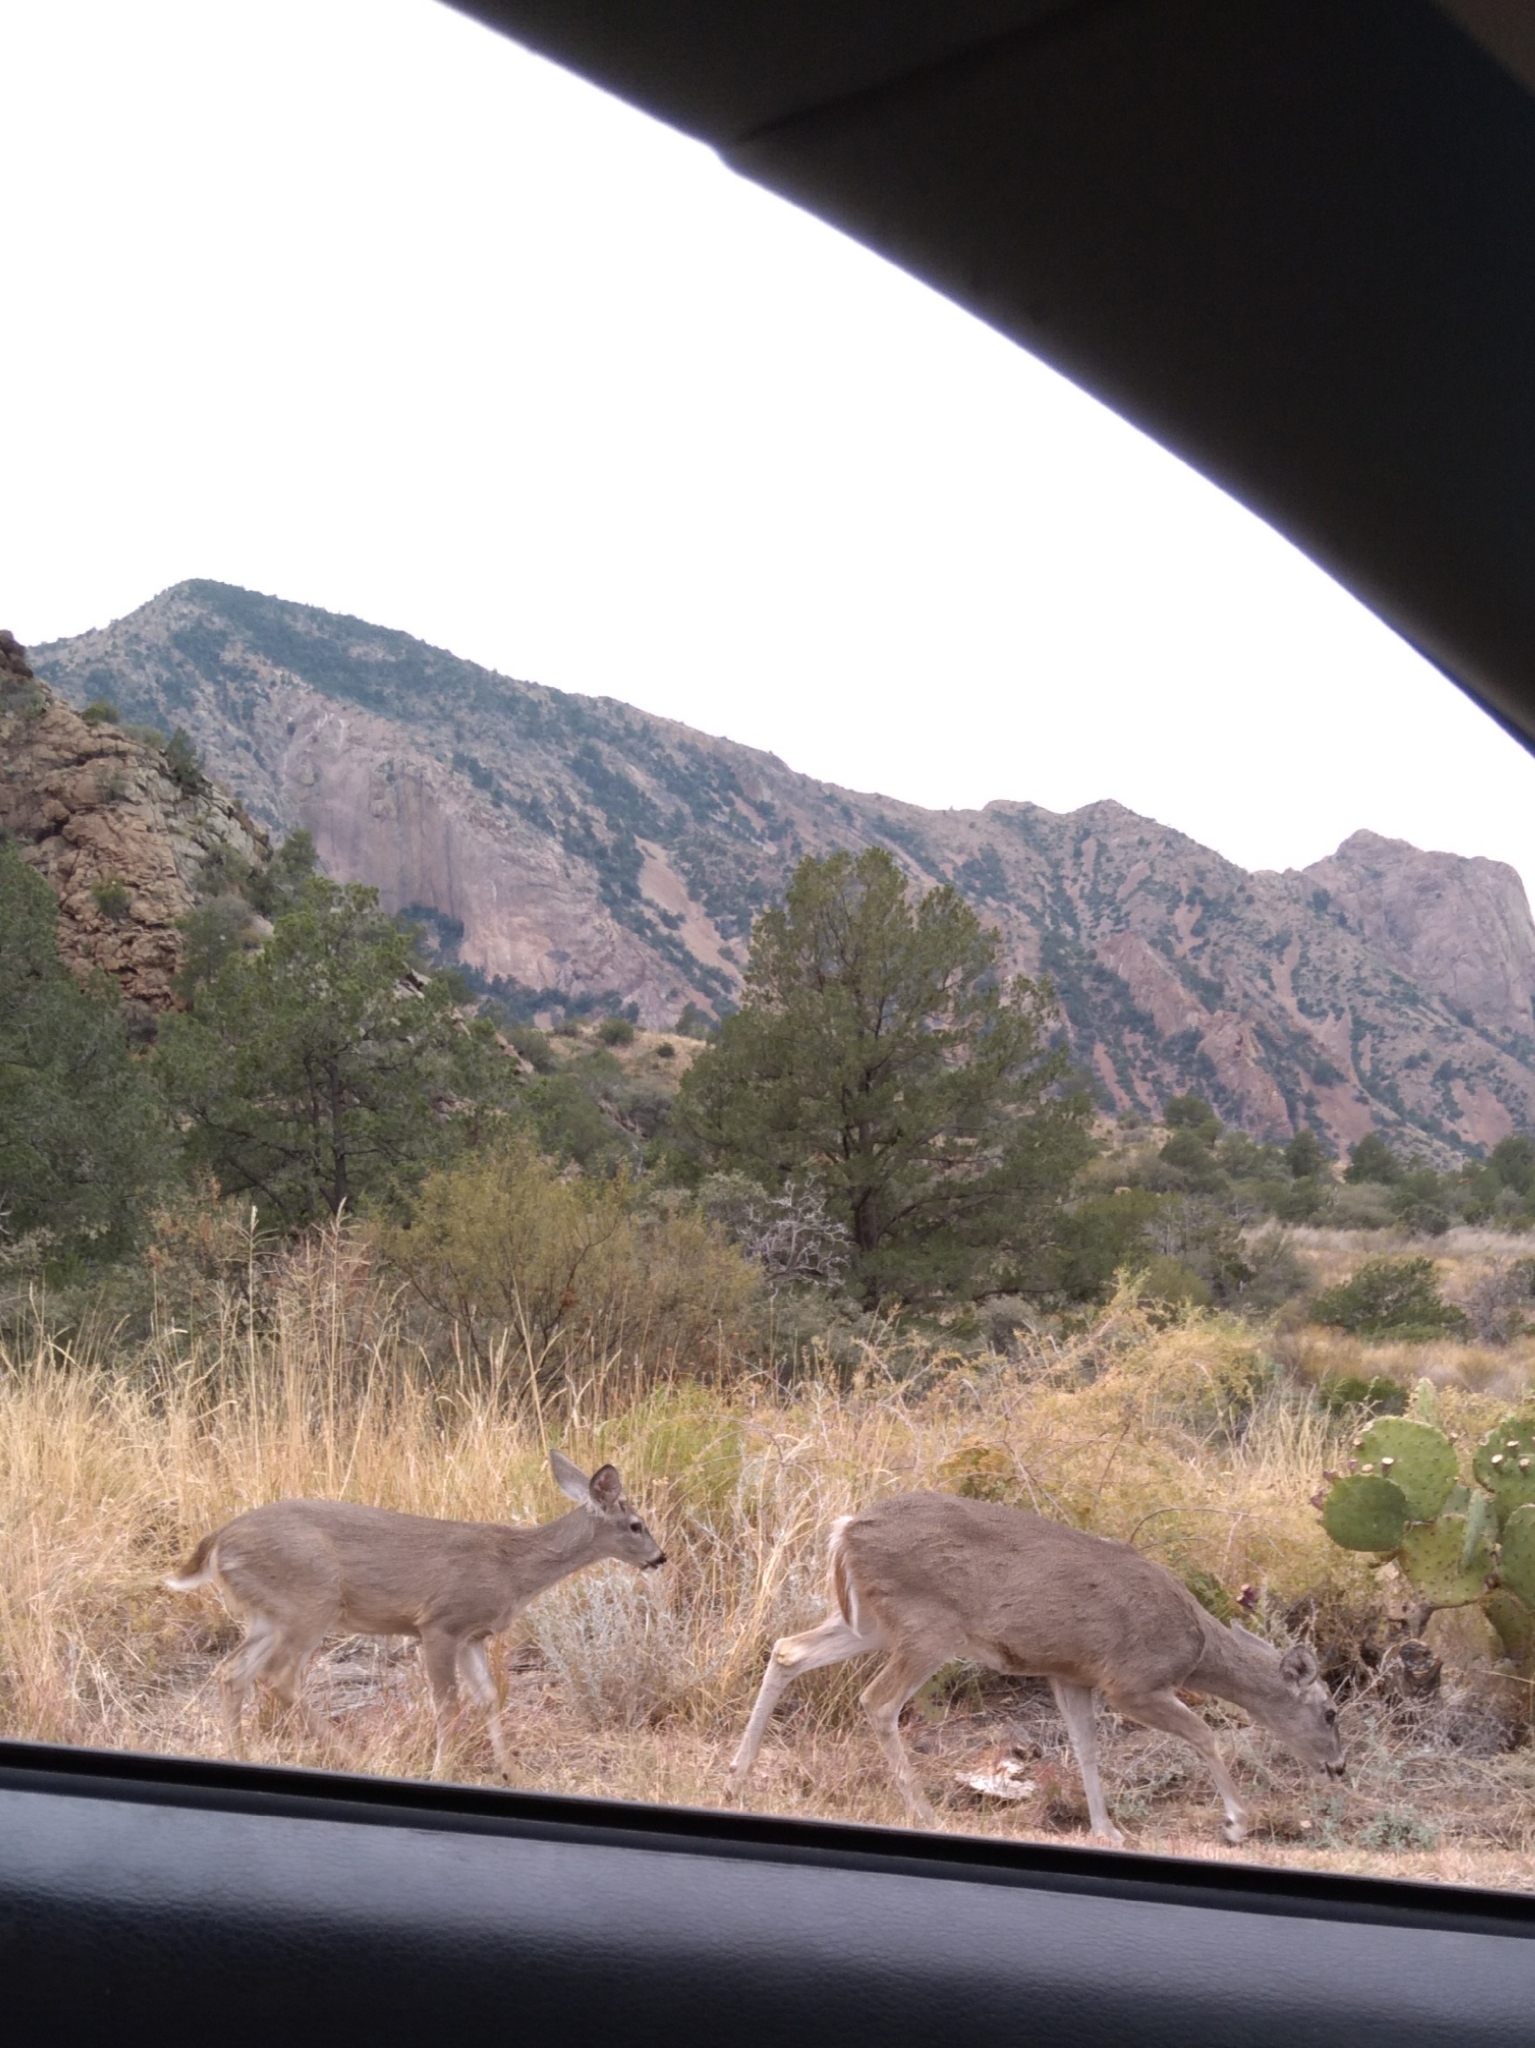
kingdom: Animalia
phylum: Chordata
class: Mammalia
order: Artiodactyla
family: Cervidae
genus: Odocoileus
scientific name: Odocoileus virginianus
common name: White-tailed deer
